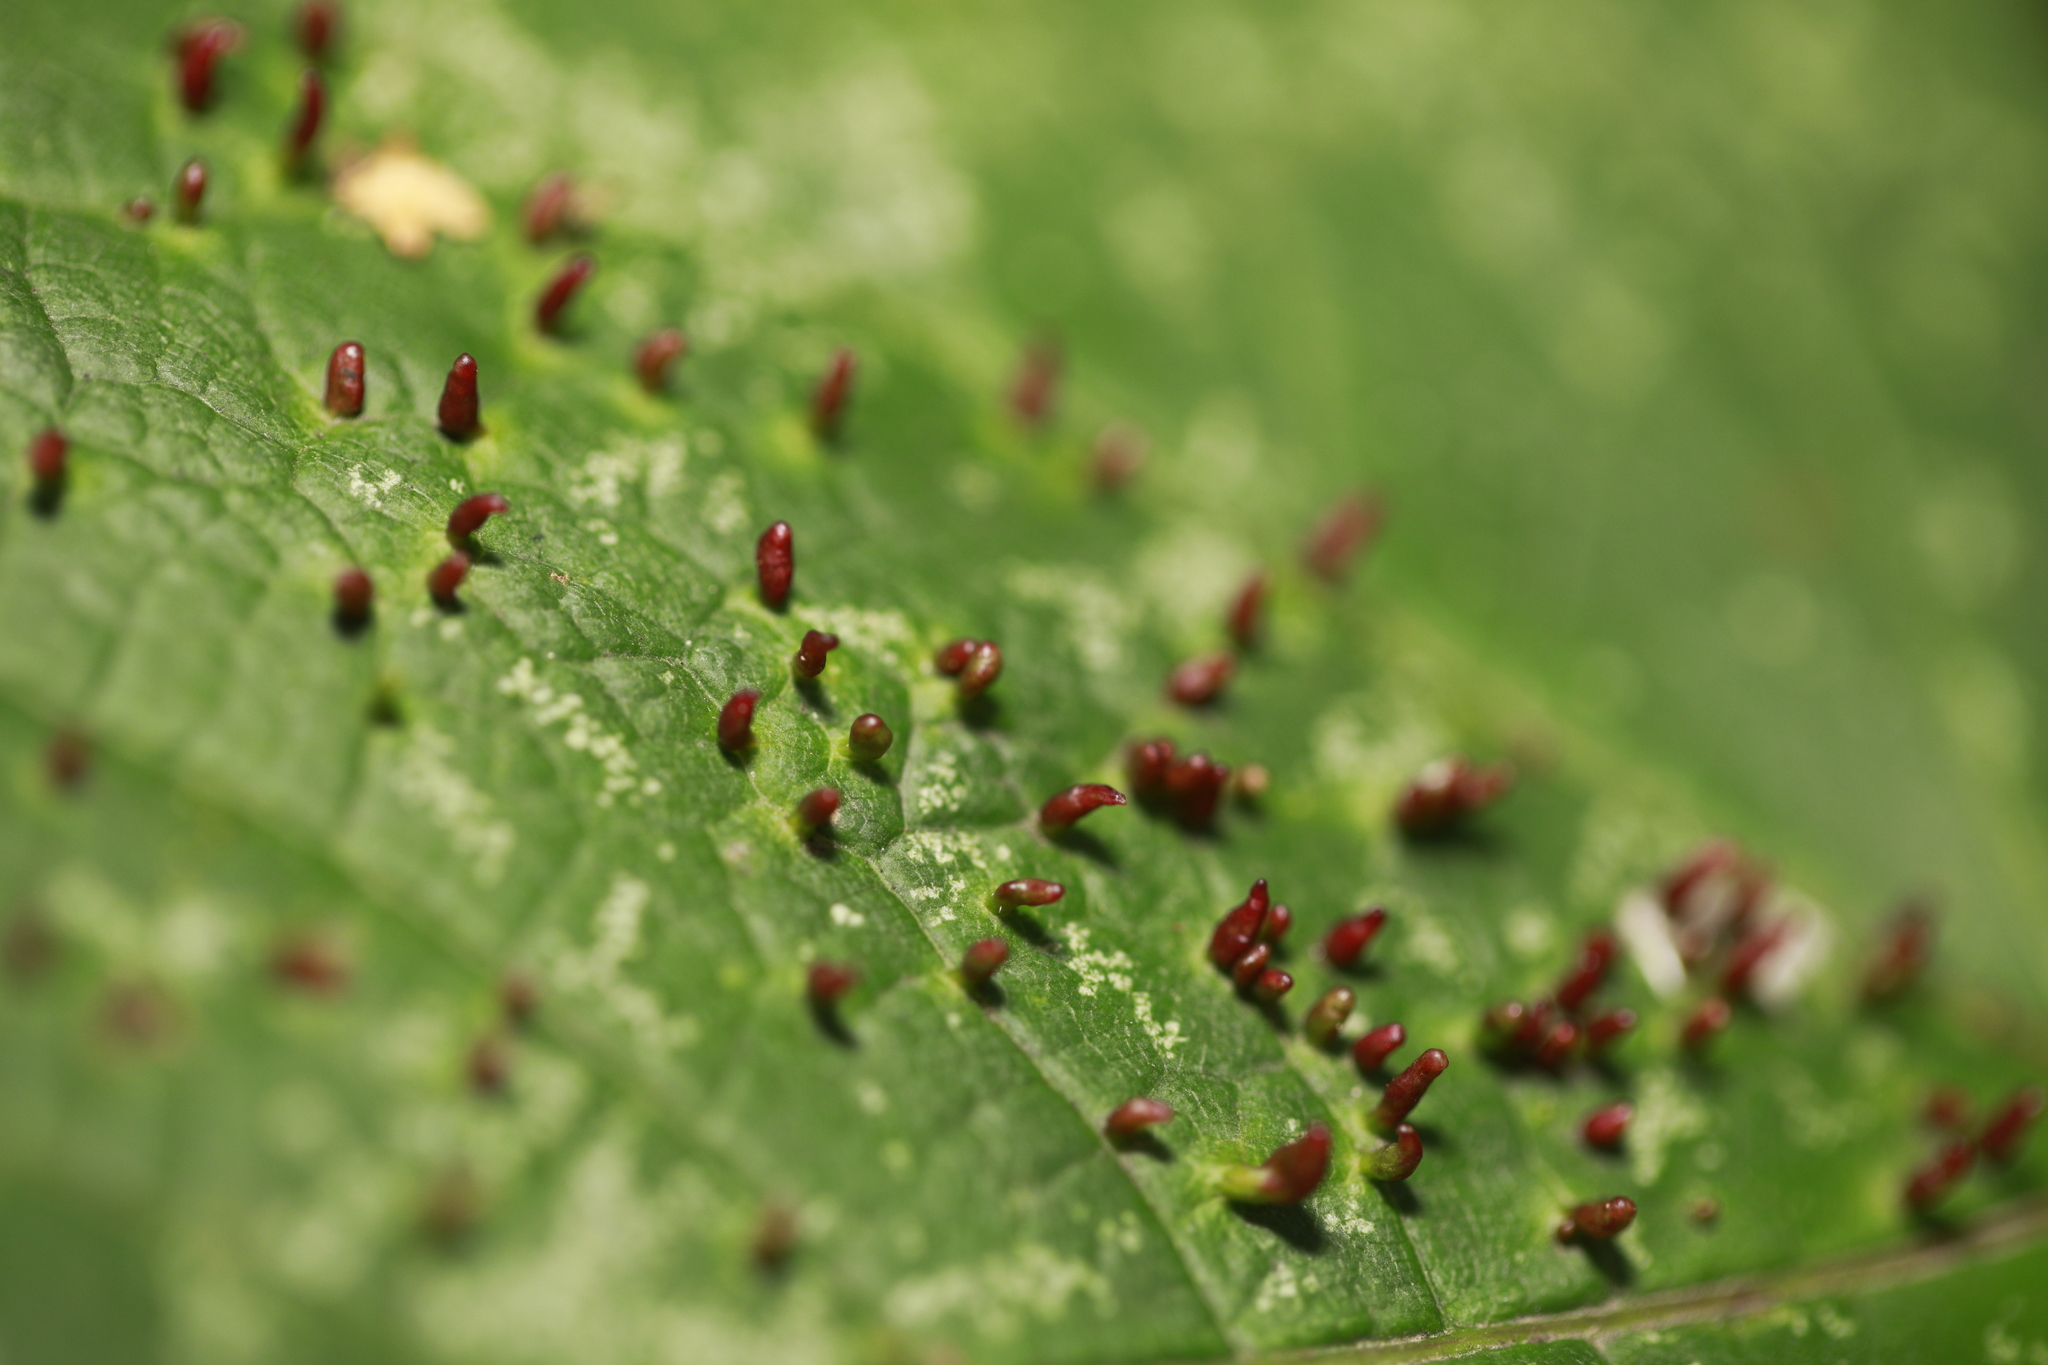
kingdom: Animalia
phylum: Arthropoda
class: Arachnida
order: Trombidiformes
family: Eriophyidae
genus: Aceria
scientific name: Aceria cephaloneus
